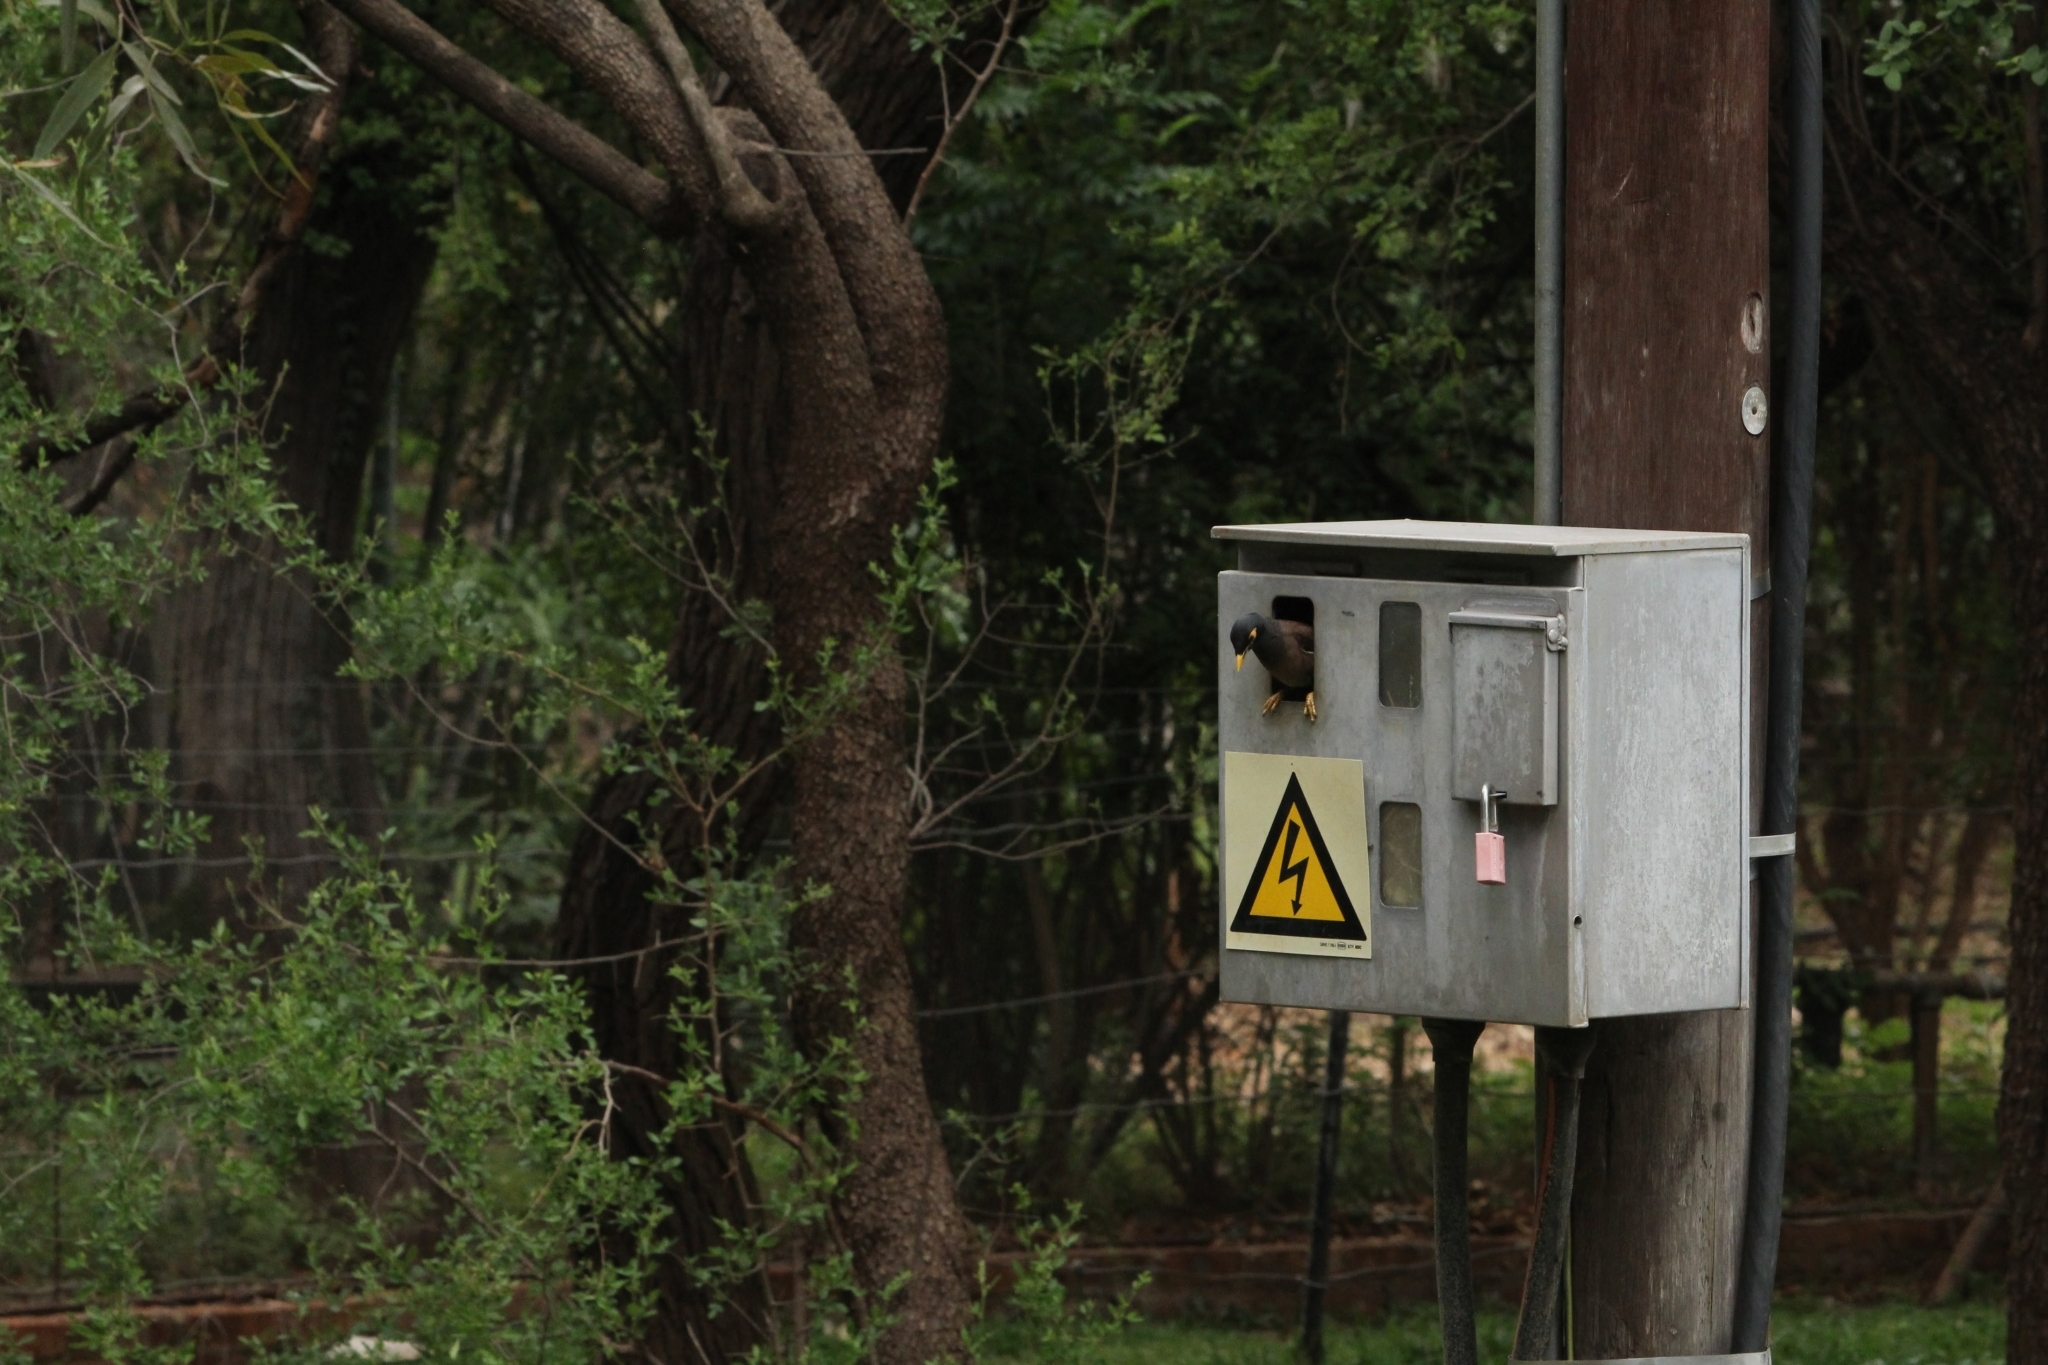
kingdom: Animalia
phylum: Chordata
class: Aves
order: Passeriformes
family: Sturnidae
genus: Acridotheres
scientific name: Acridotheres tristis
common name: Common myna
